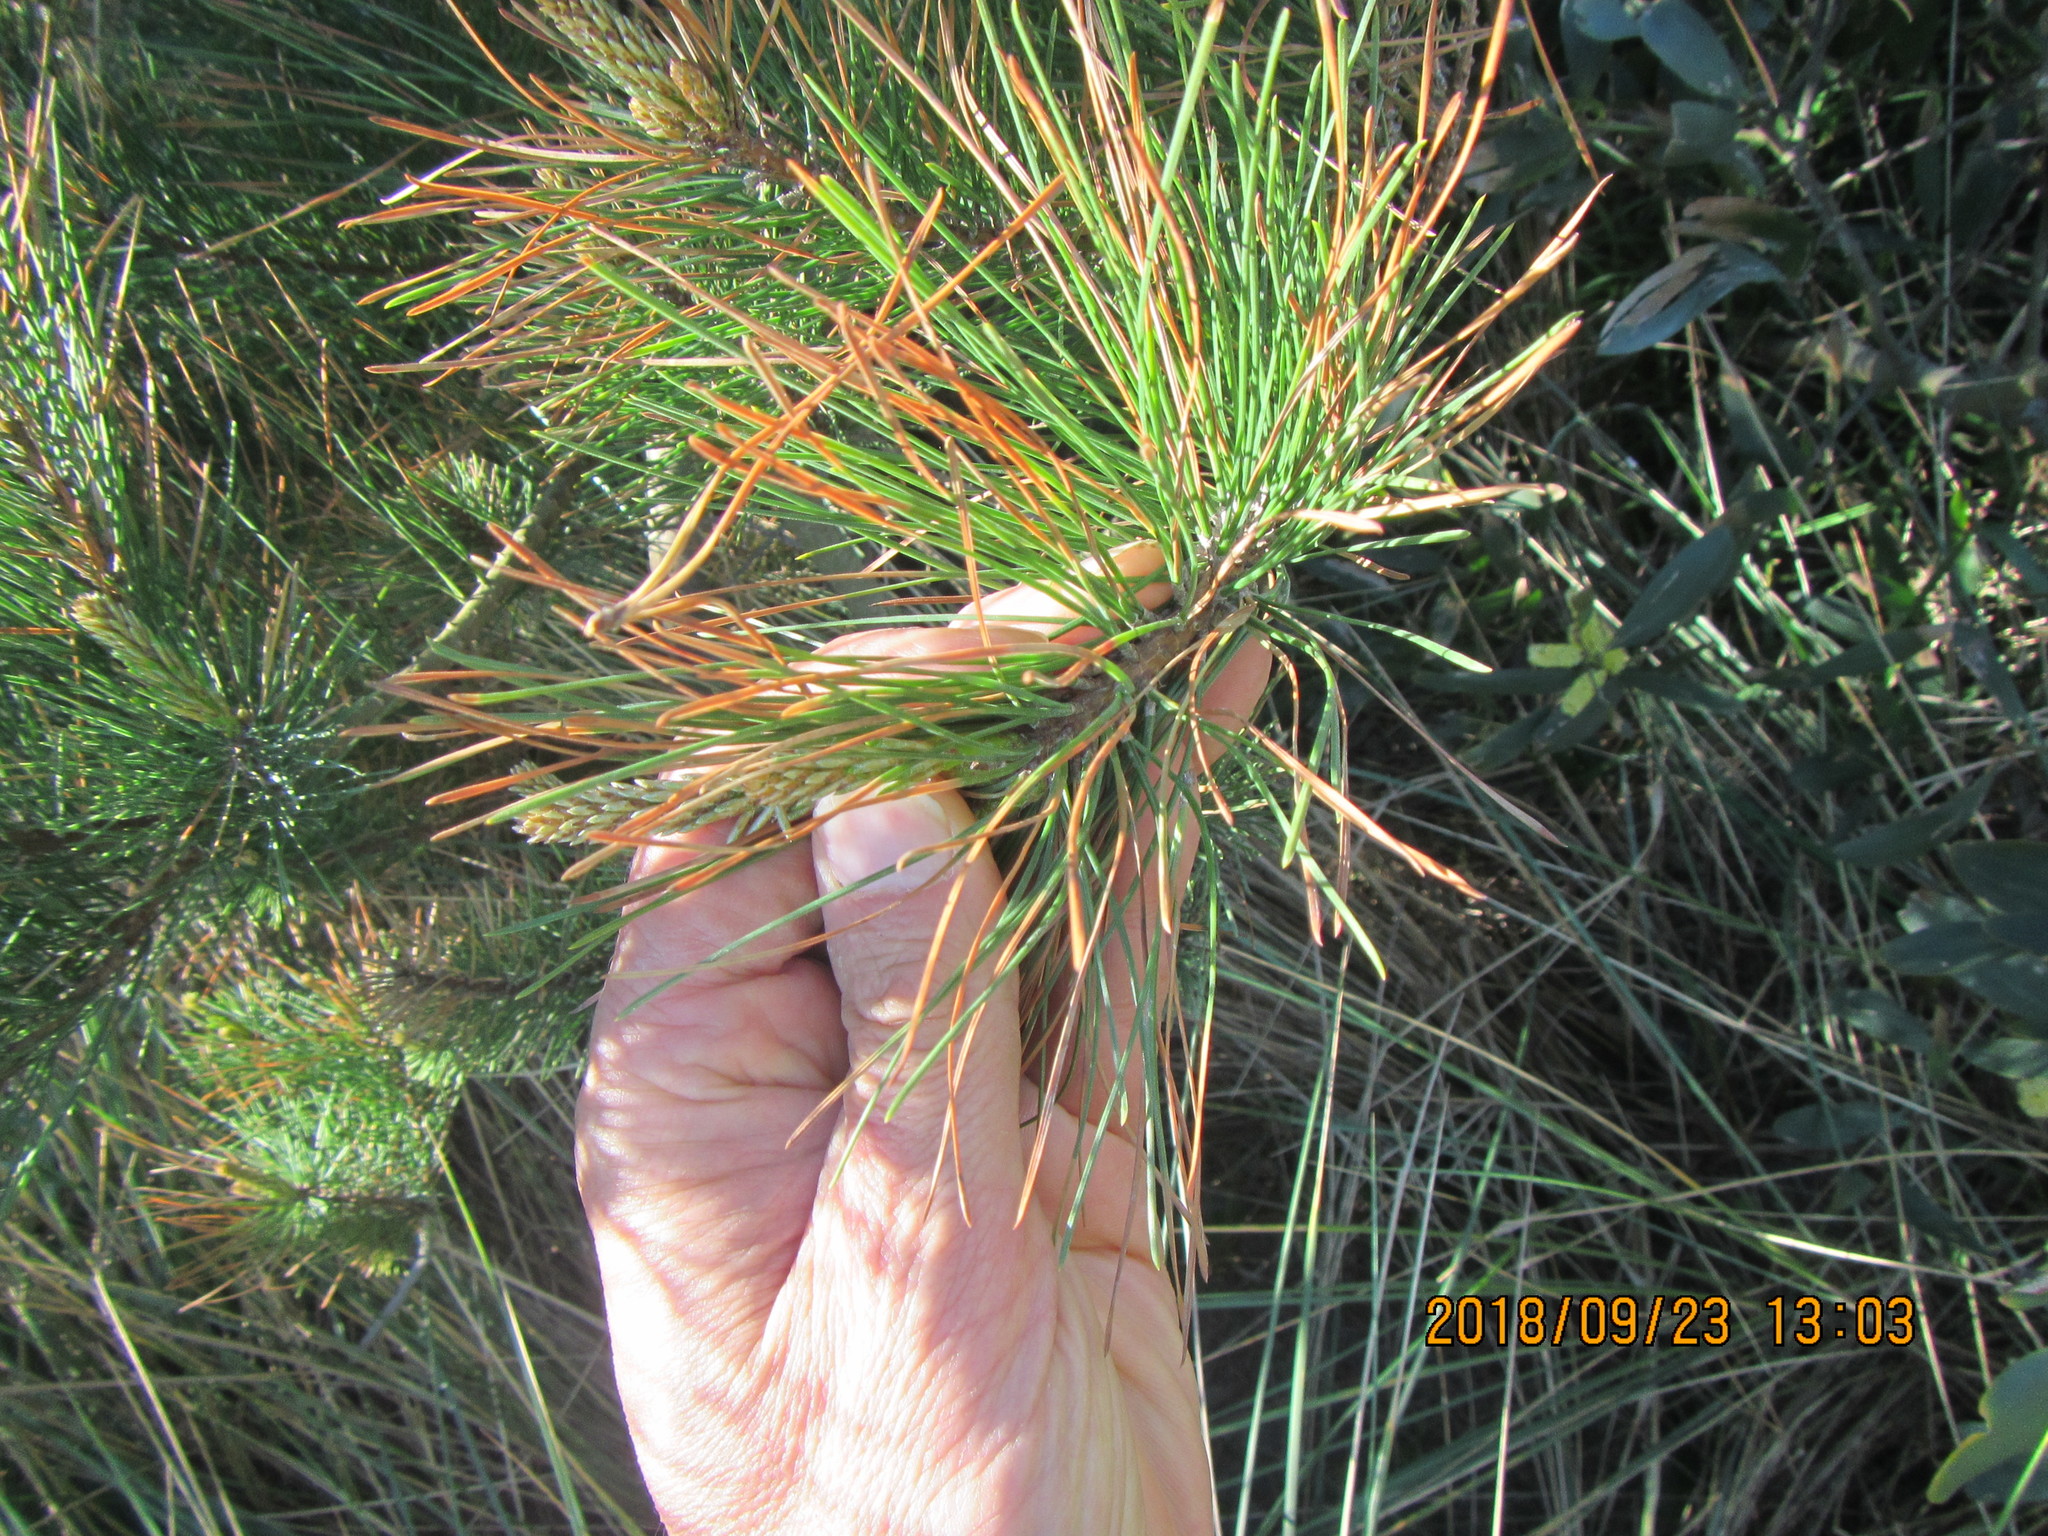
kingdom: Plantae
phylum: Tracheophyta
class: Pinopsida
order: Pinales
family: Pinaceae
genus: Pinus
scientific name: Pinus radiata
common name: Monterey pine
